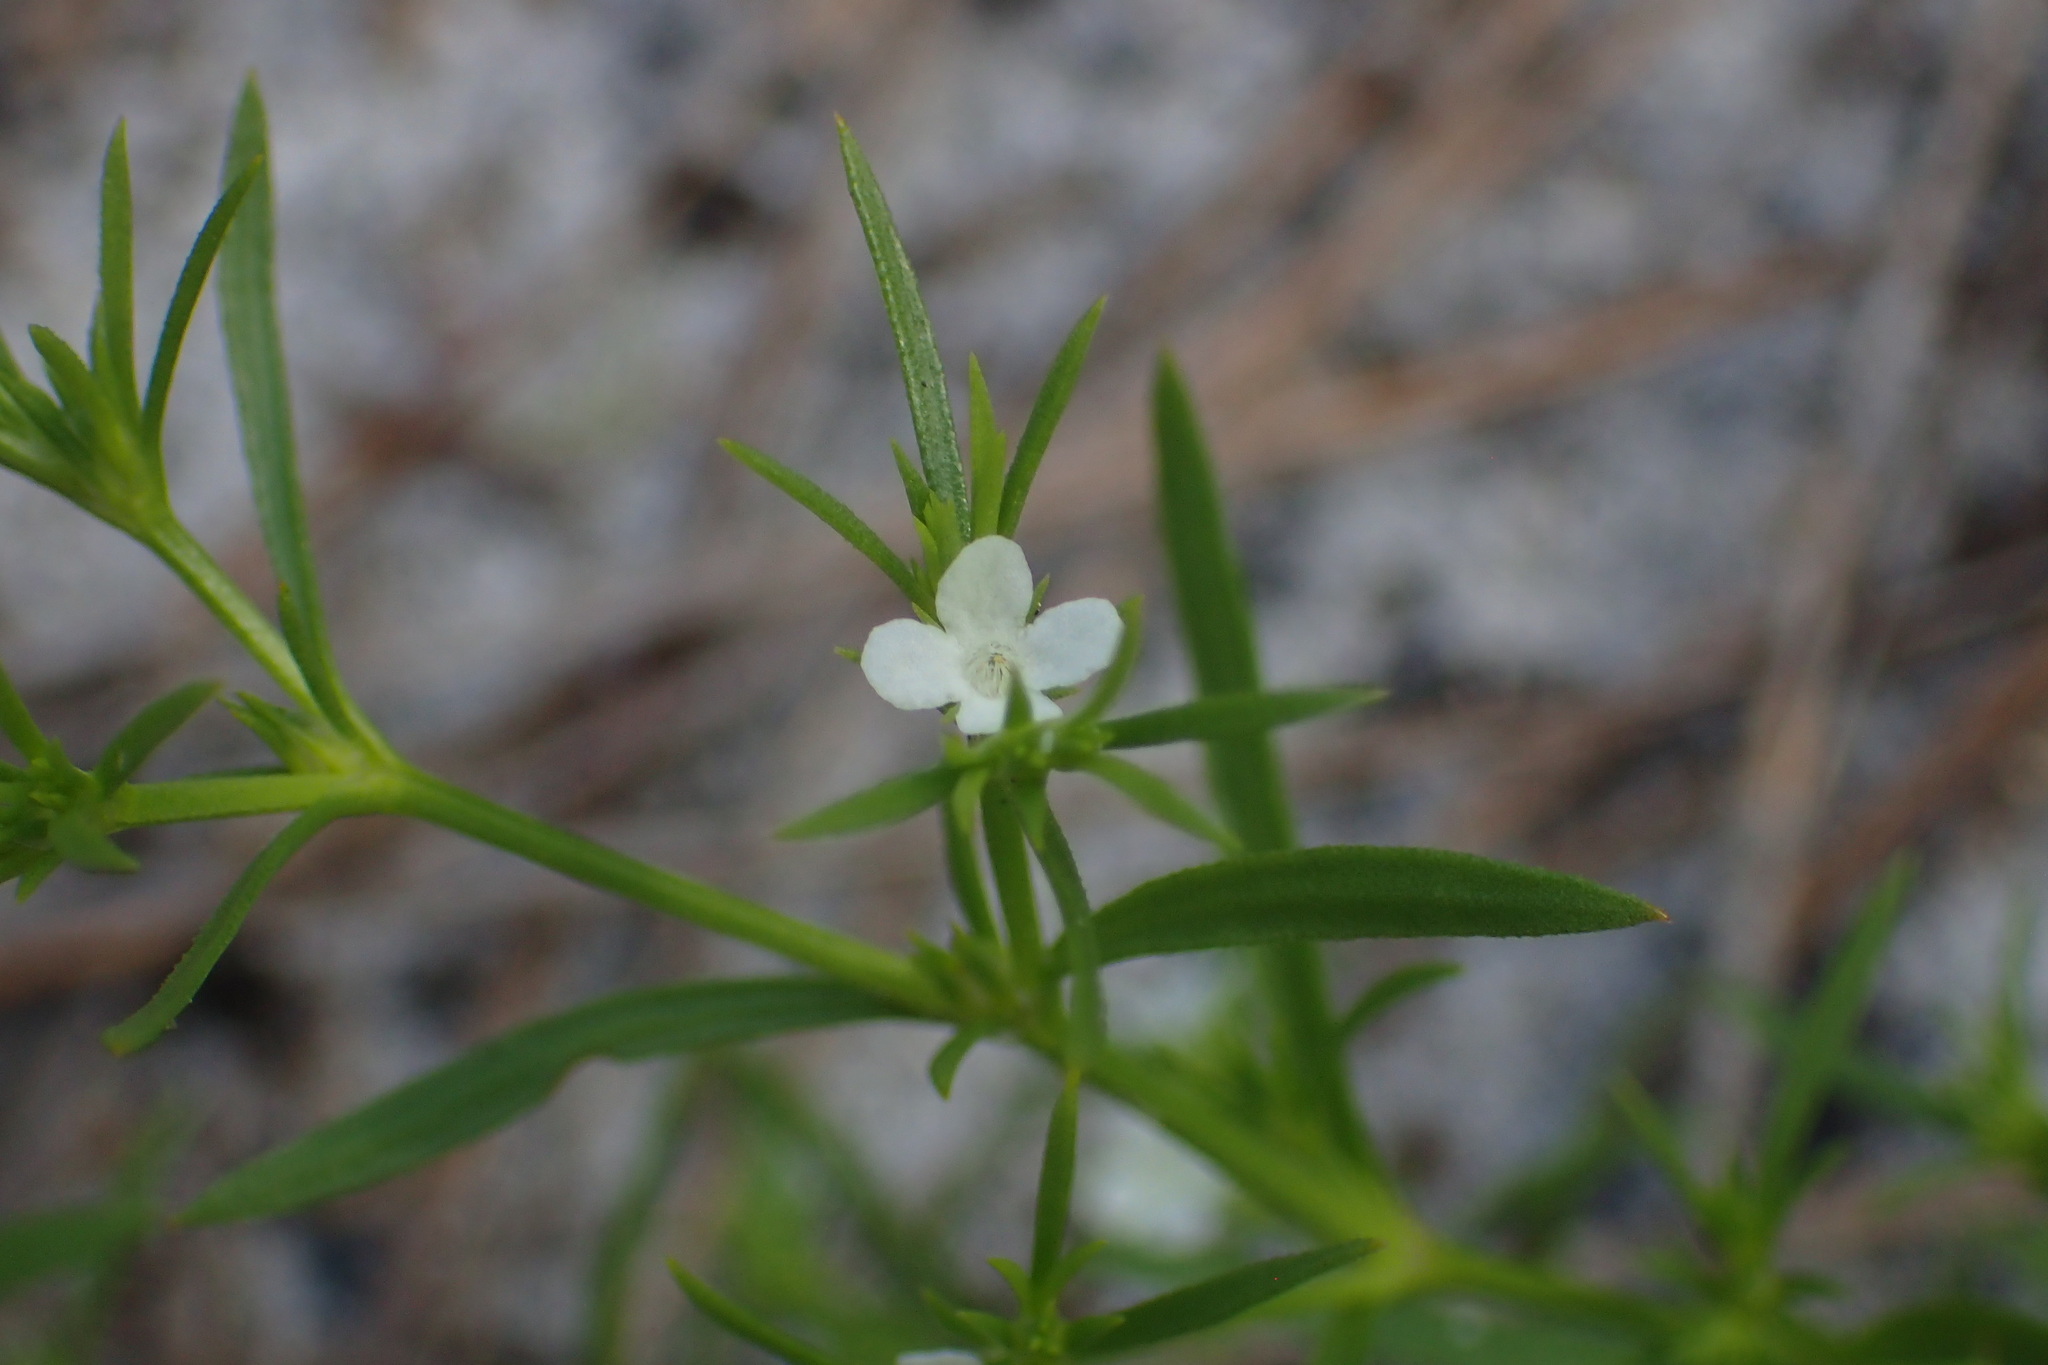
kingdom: Plantae
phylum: Tracheophyta
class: Magnoliopsida
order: Lamiales
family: Tetrachondraceae
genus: Polypremum
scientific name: Polypremum procumbens
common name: Juniper-leaf
